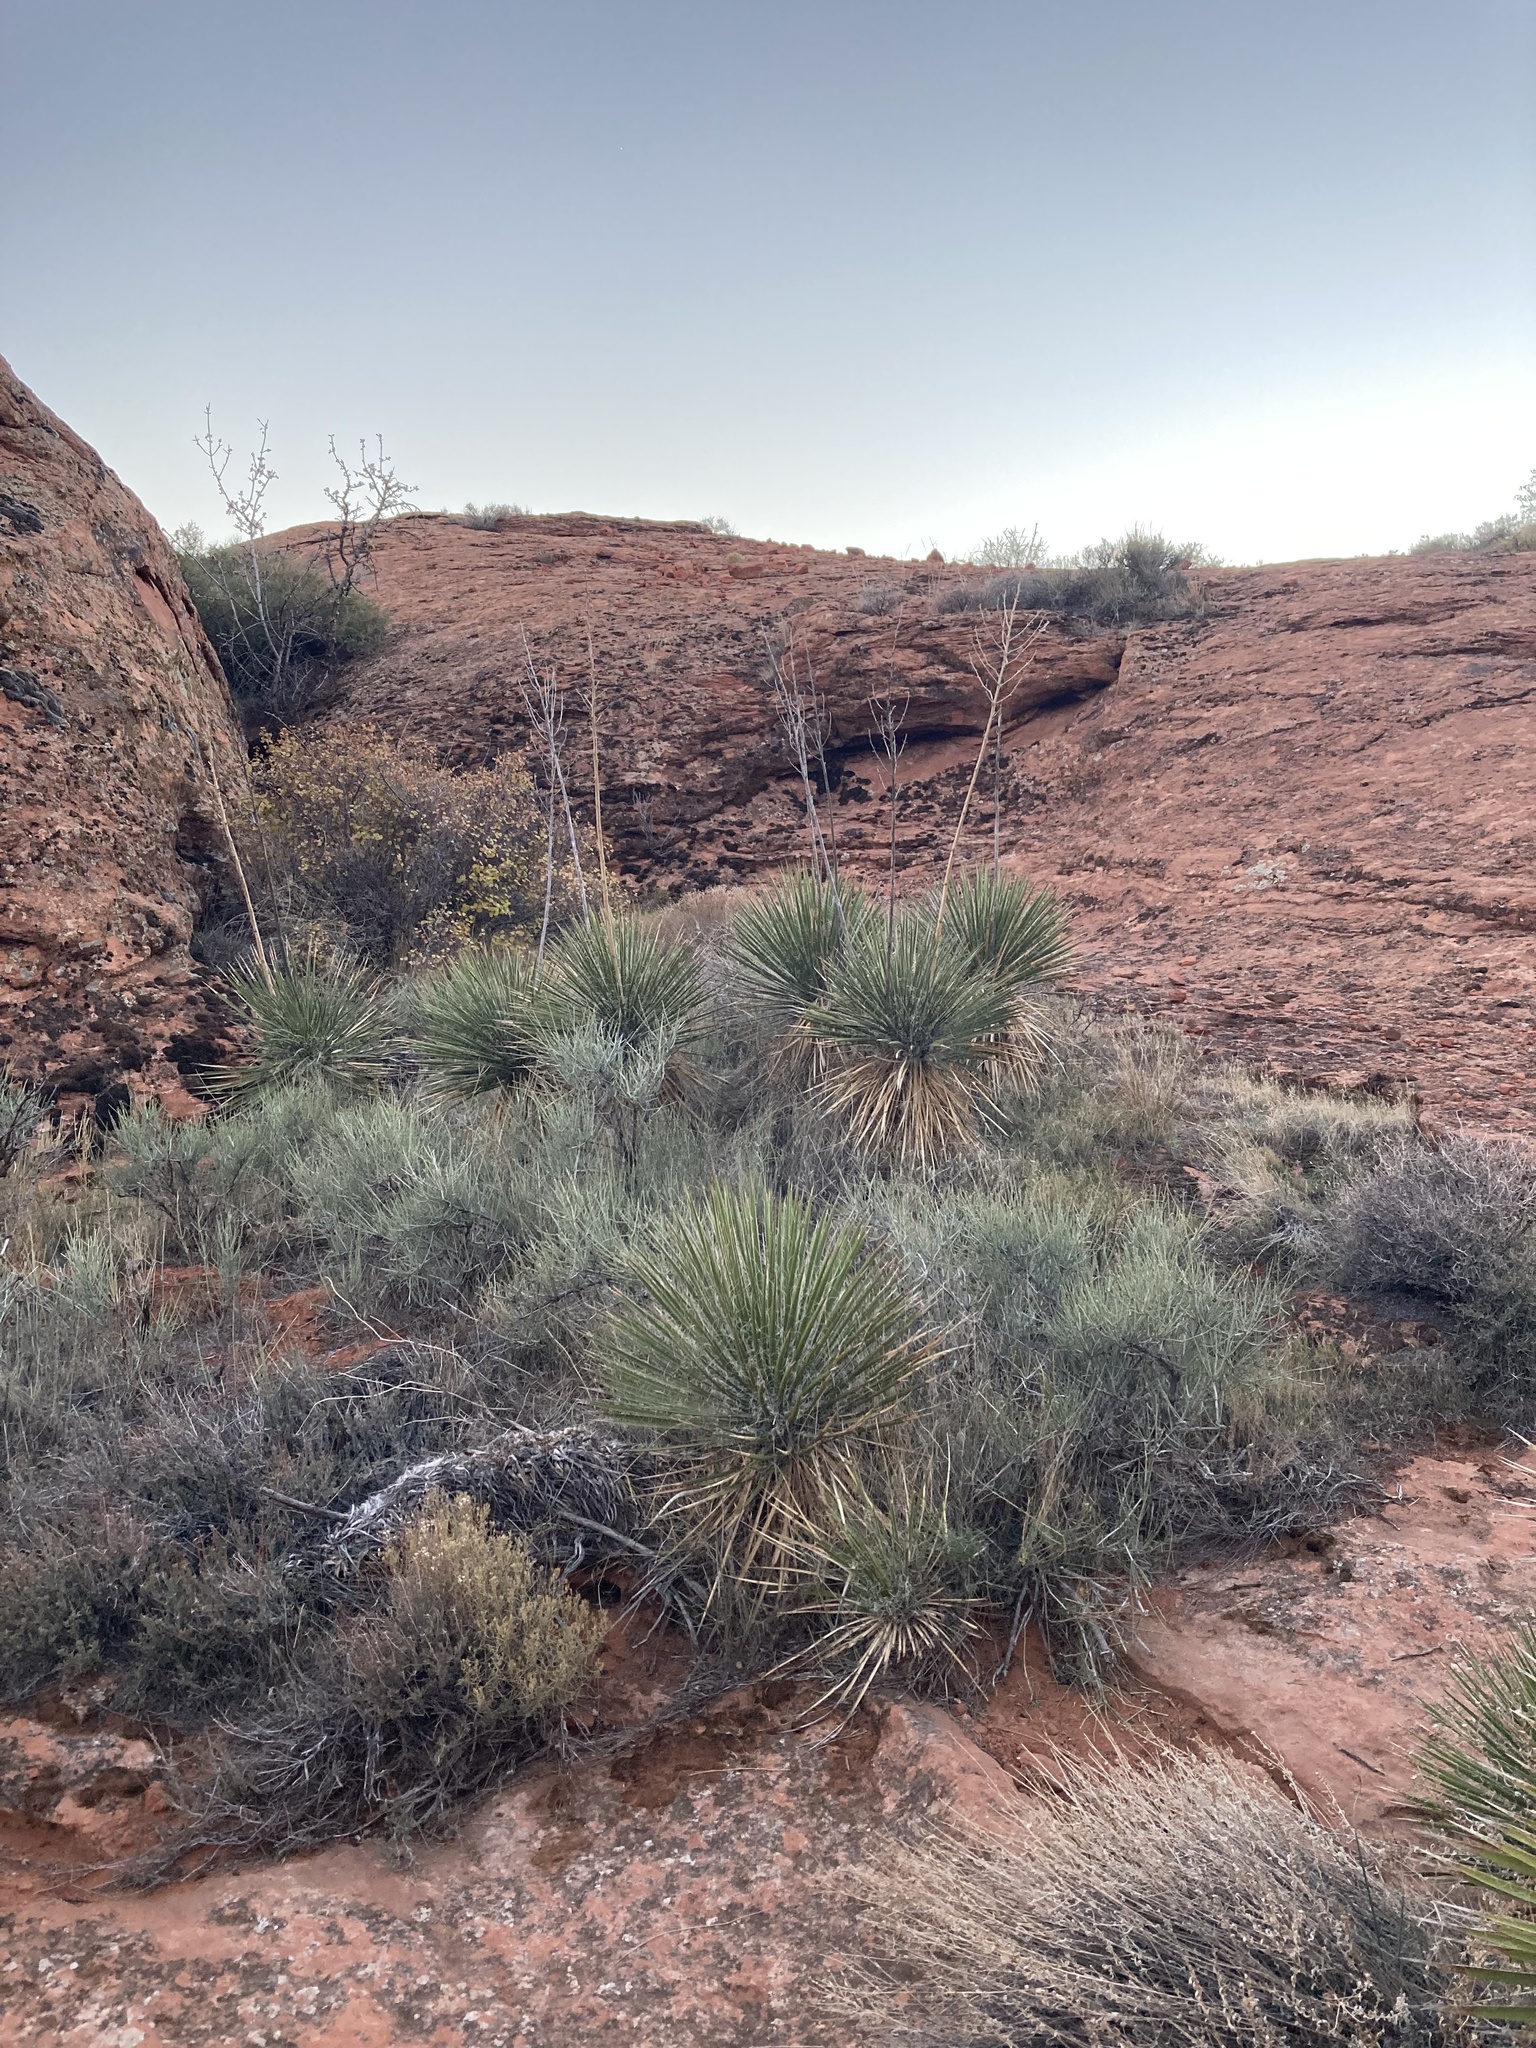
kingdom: Plantae
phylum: Tracheophyta
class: Liliopsida
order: Asparagales
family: Asparagaceae
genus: Yucca
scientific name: Yucca utahensis
